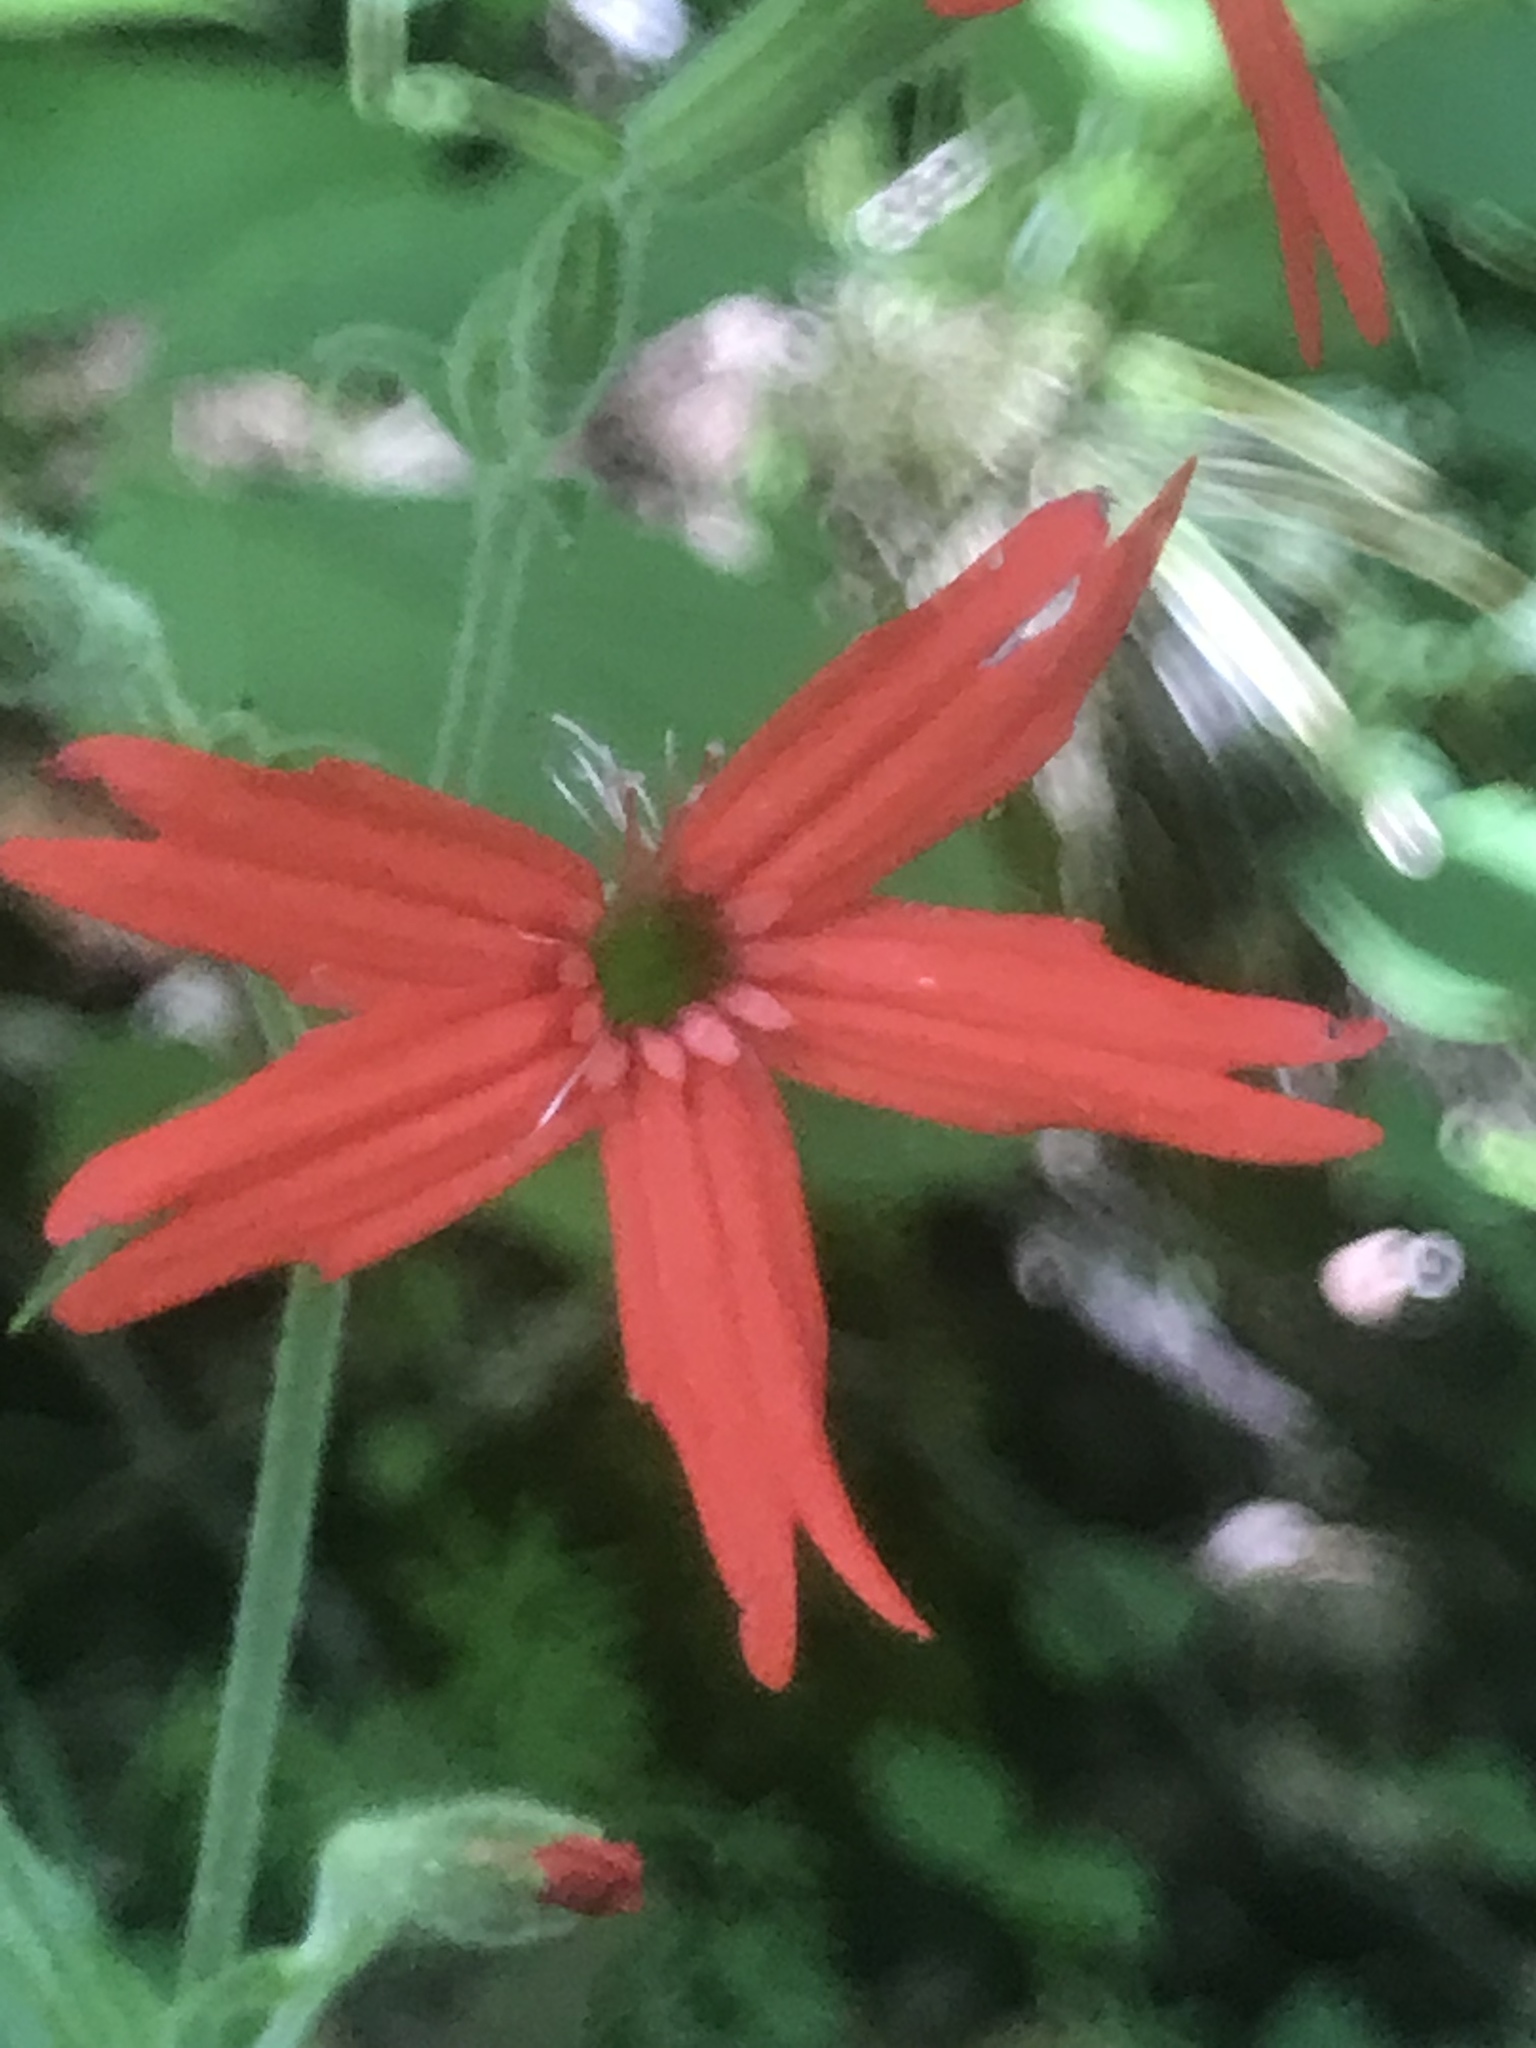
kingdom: Plantae
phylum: Tracheophyta
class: Magnoliopsida
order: Caryophyllales
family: Caryophyllaceae
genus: Silene
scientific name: Silene virginica
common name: Fire-pink
